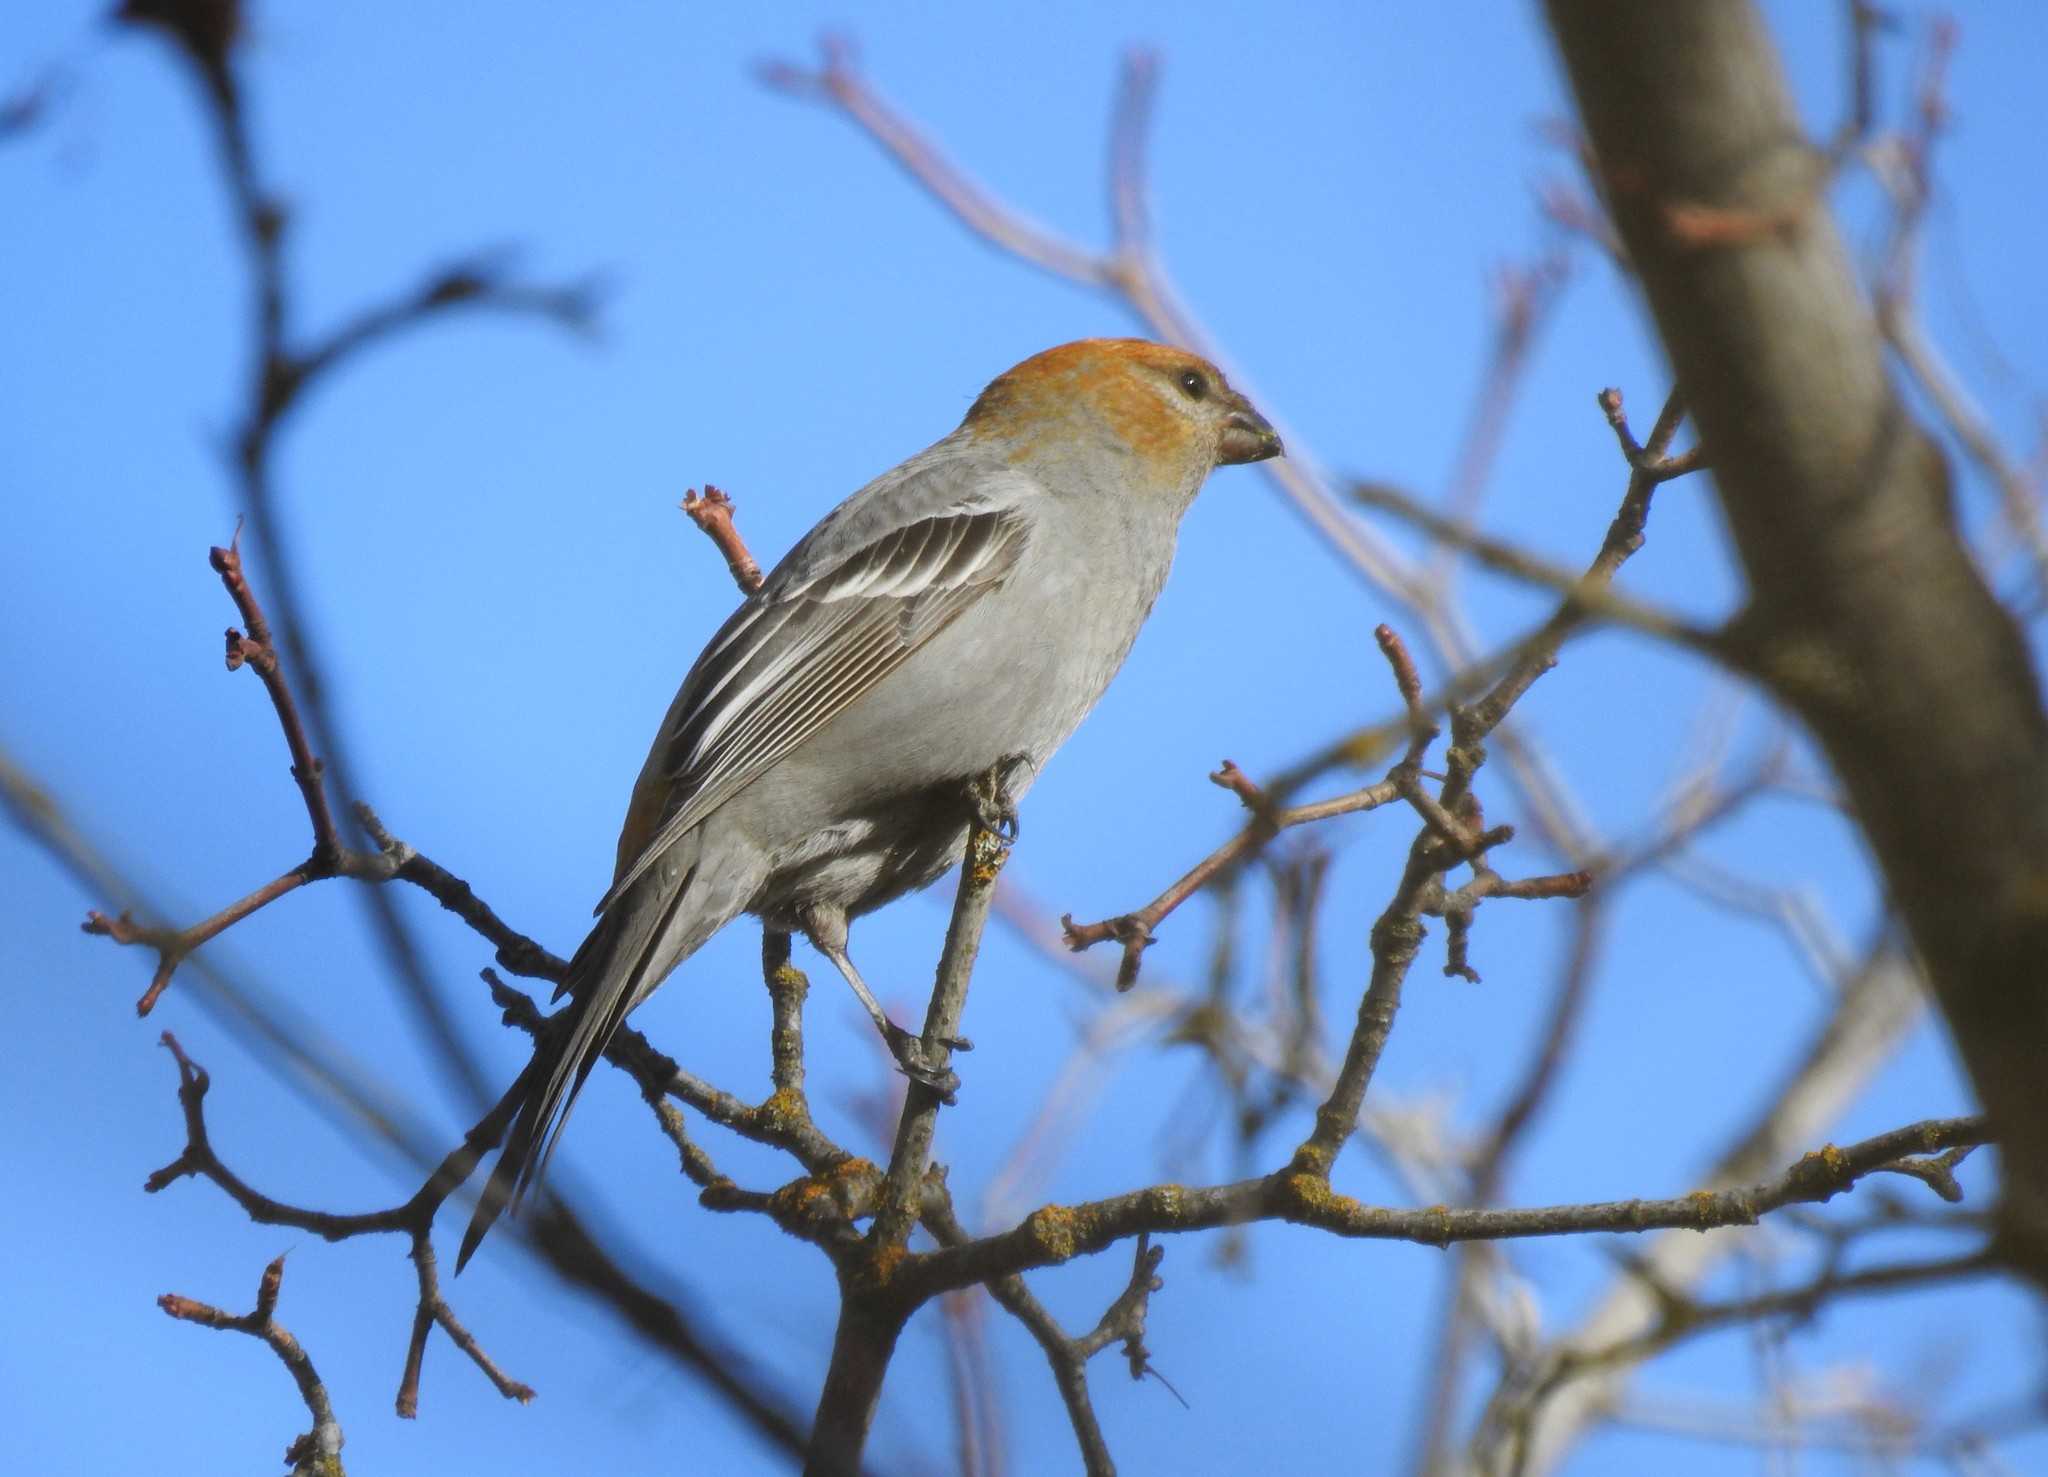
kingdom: Animalia
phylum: Chordata
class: Aves
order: Passeriformes
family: Fringillidae
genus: Pinicola
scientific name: Pinicola enucleator
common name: Pine grosbeak
